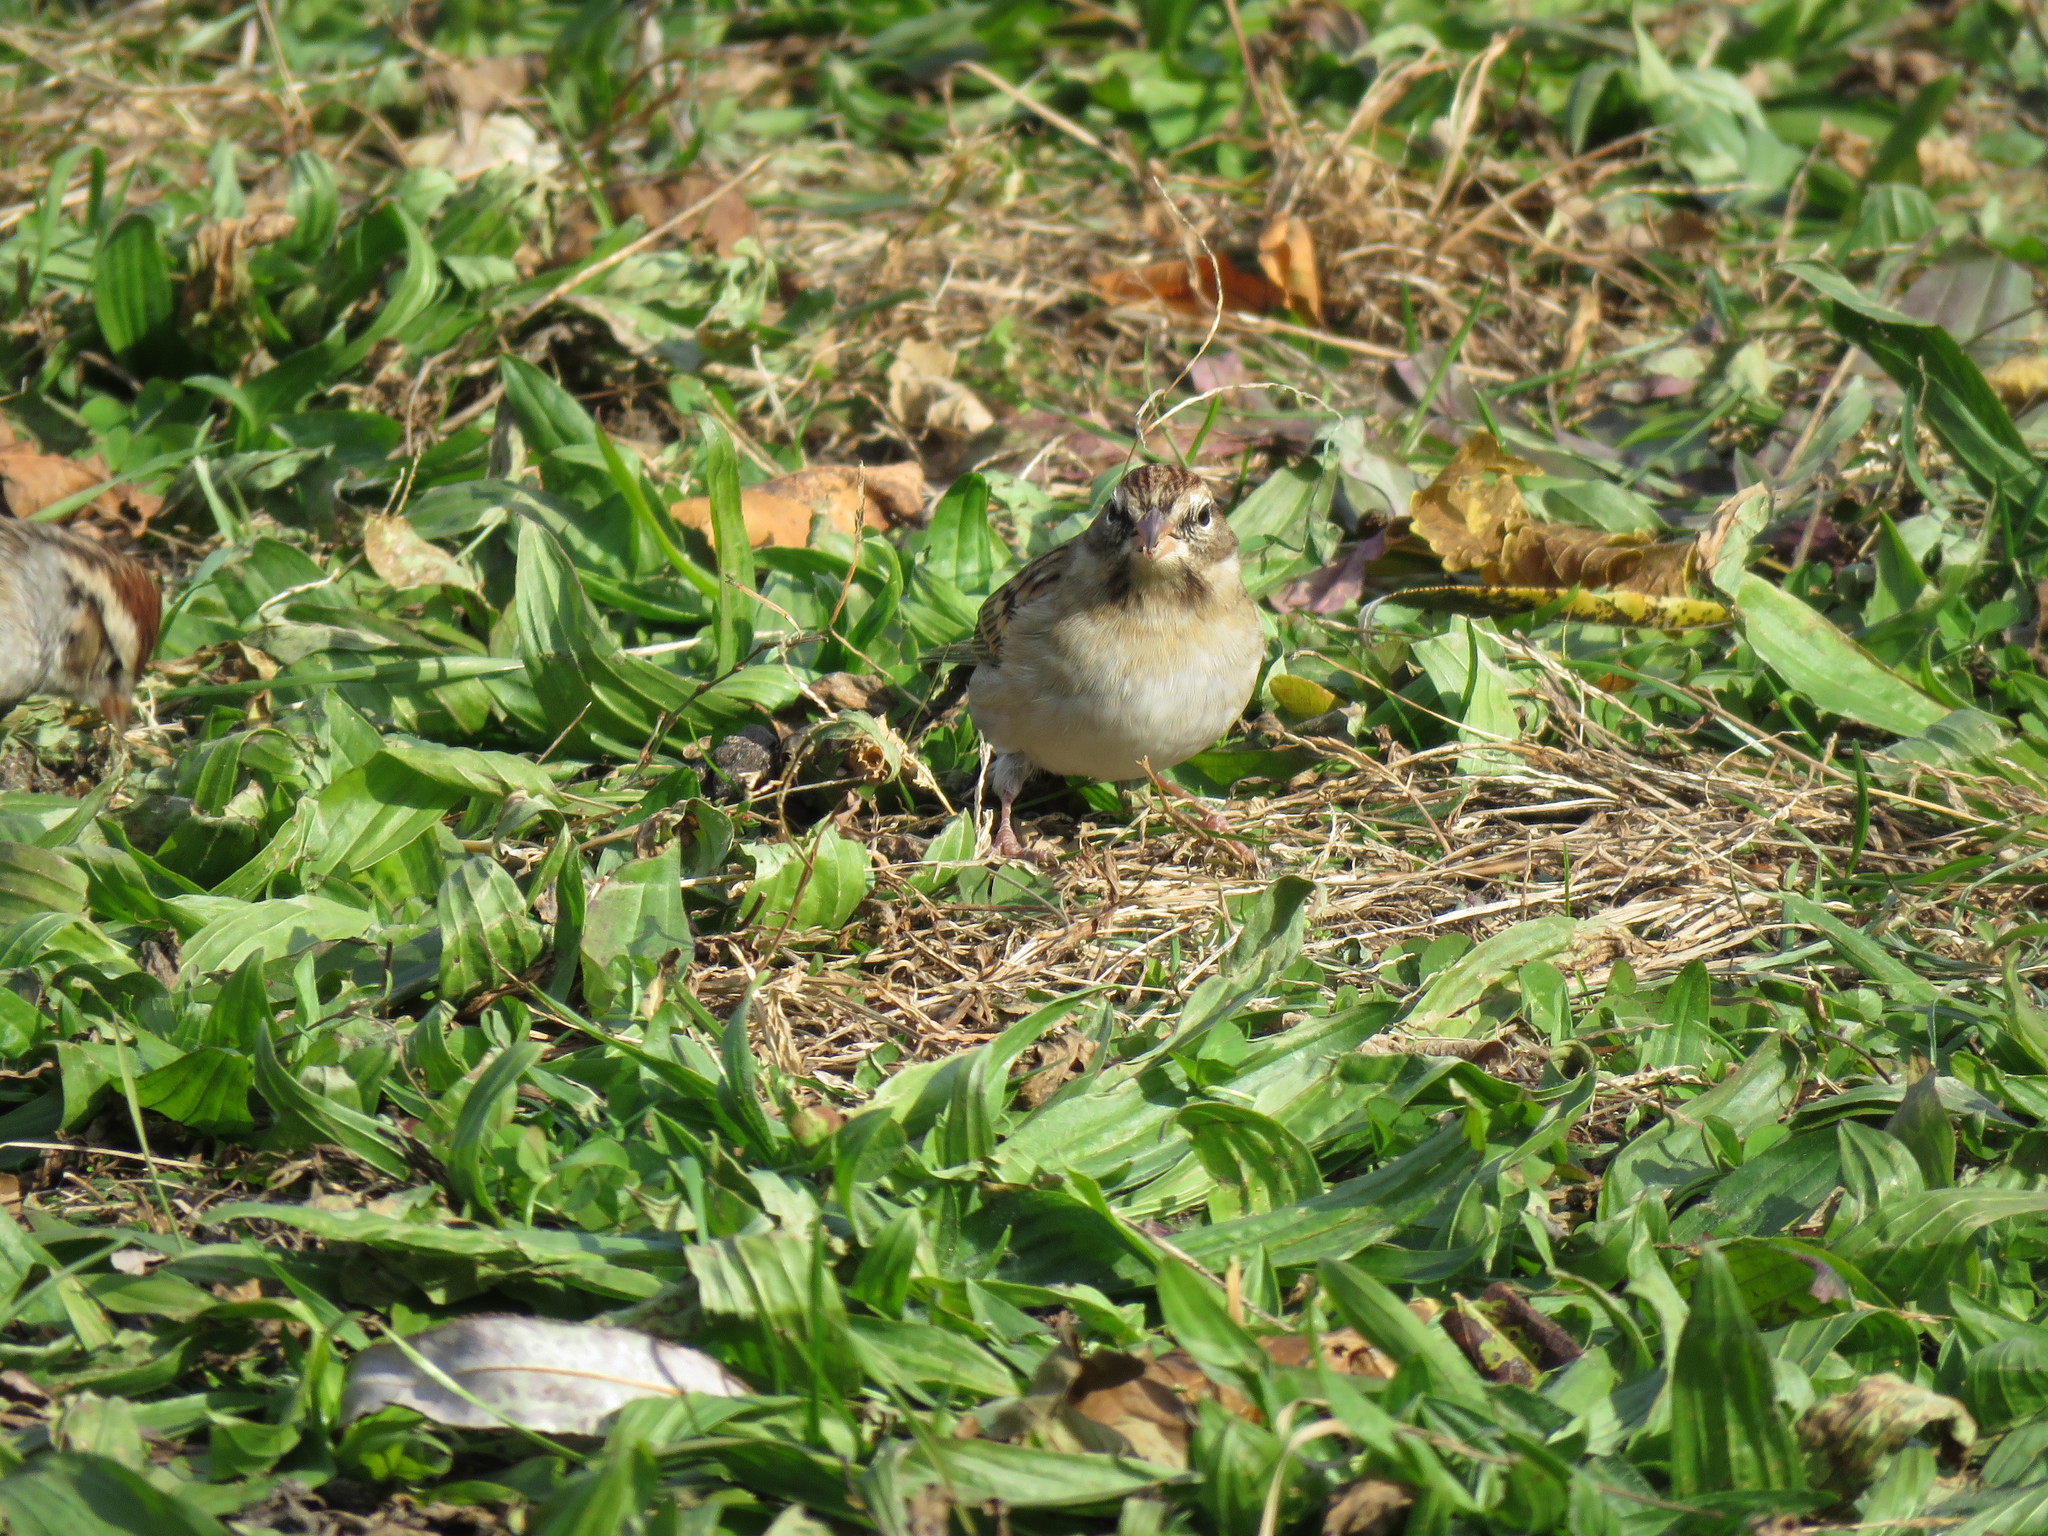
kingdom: Animalia
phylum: Chordata
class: Aves
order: Passeriformes
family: Passerellidae
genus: Spizella
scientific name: Spizella passerina
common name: Chipping sparrow
